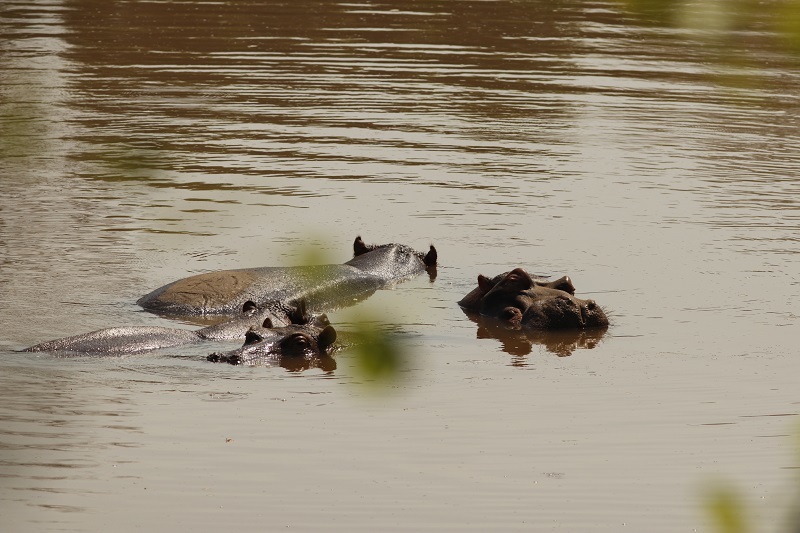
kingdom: Animalia
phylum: Chordata
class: Mammalia
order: Artiodactyla
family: Hippopotamidae
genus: Hippopotamus
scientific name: Hippopotamus amphibius
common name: Common hippopotamus
